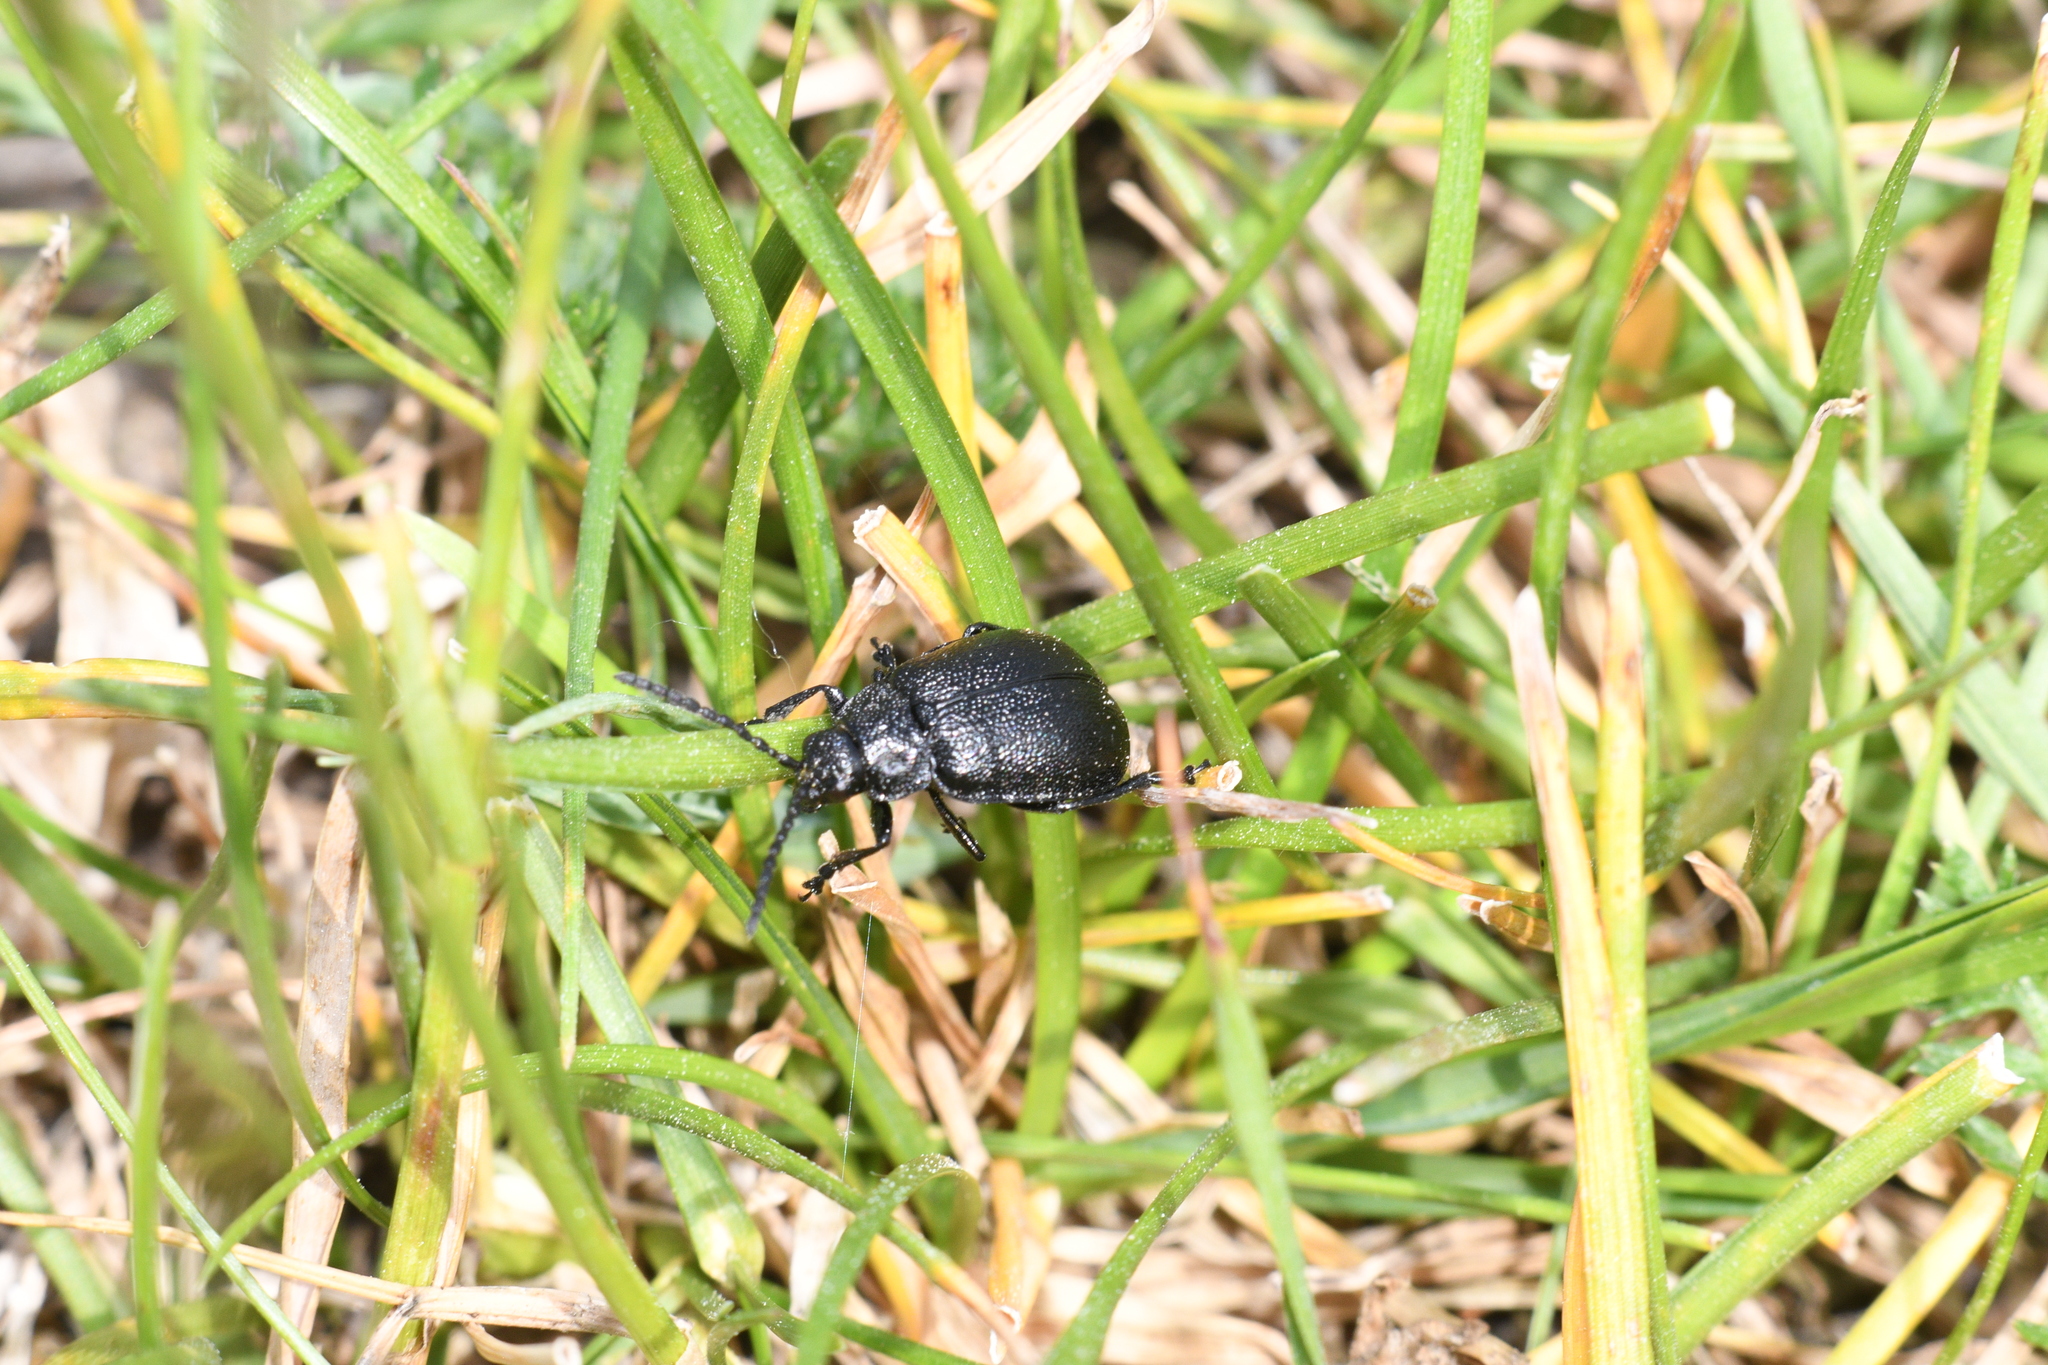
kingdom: Animalia
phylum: Arthropoda
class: Insecta
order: Coleoptera
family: Chrysomelidae
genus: Galeruca
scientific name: Galeruca tanaceti
